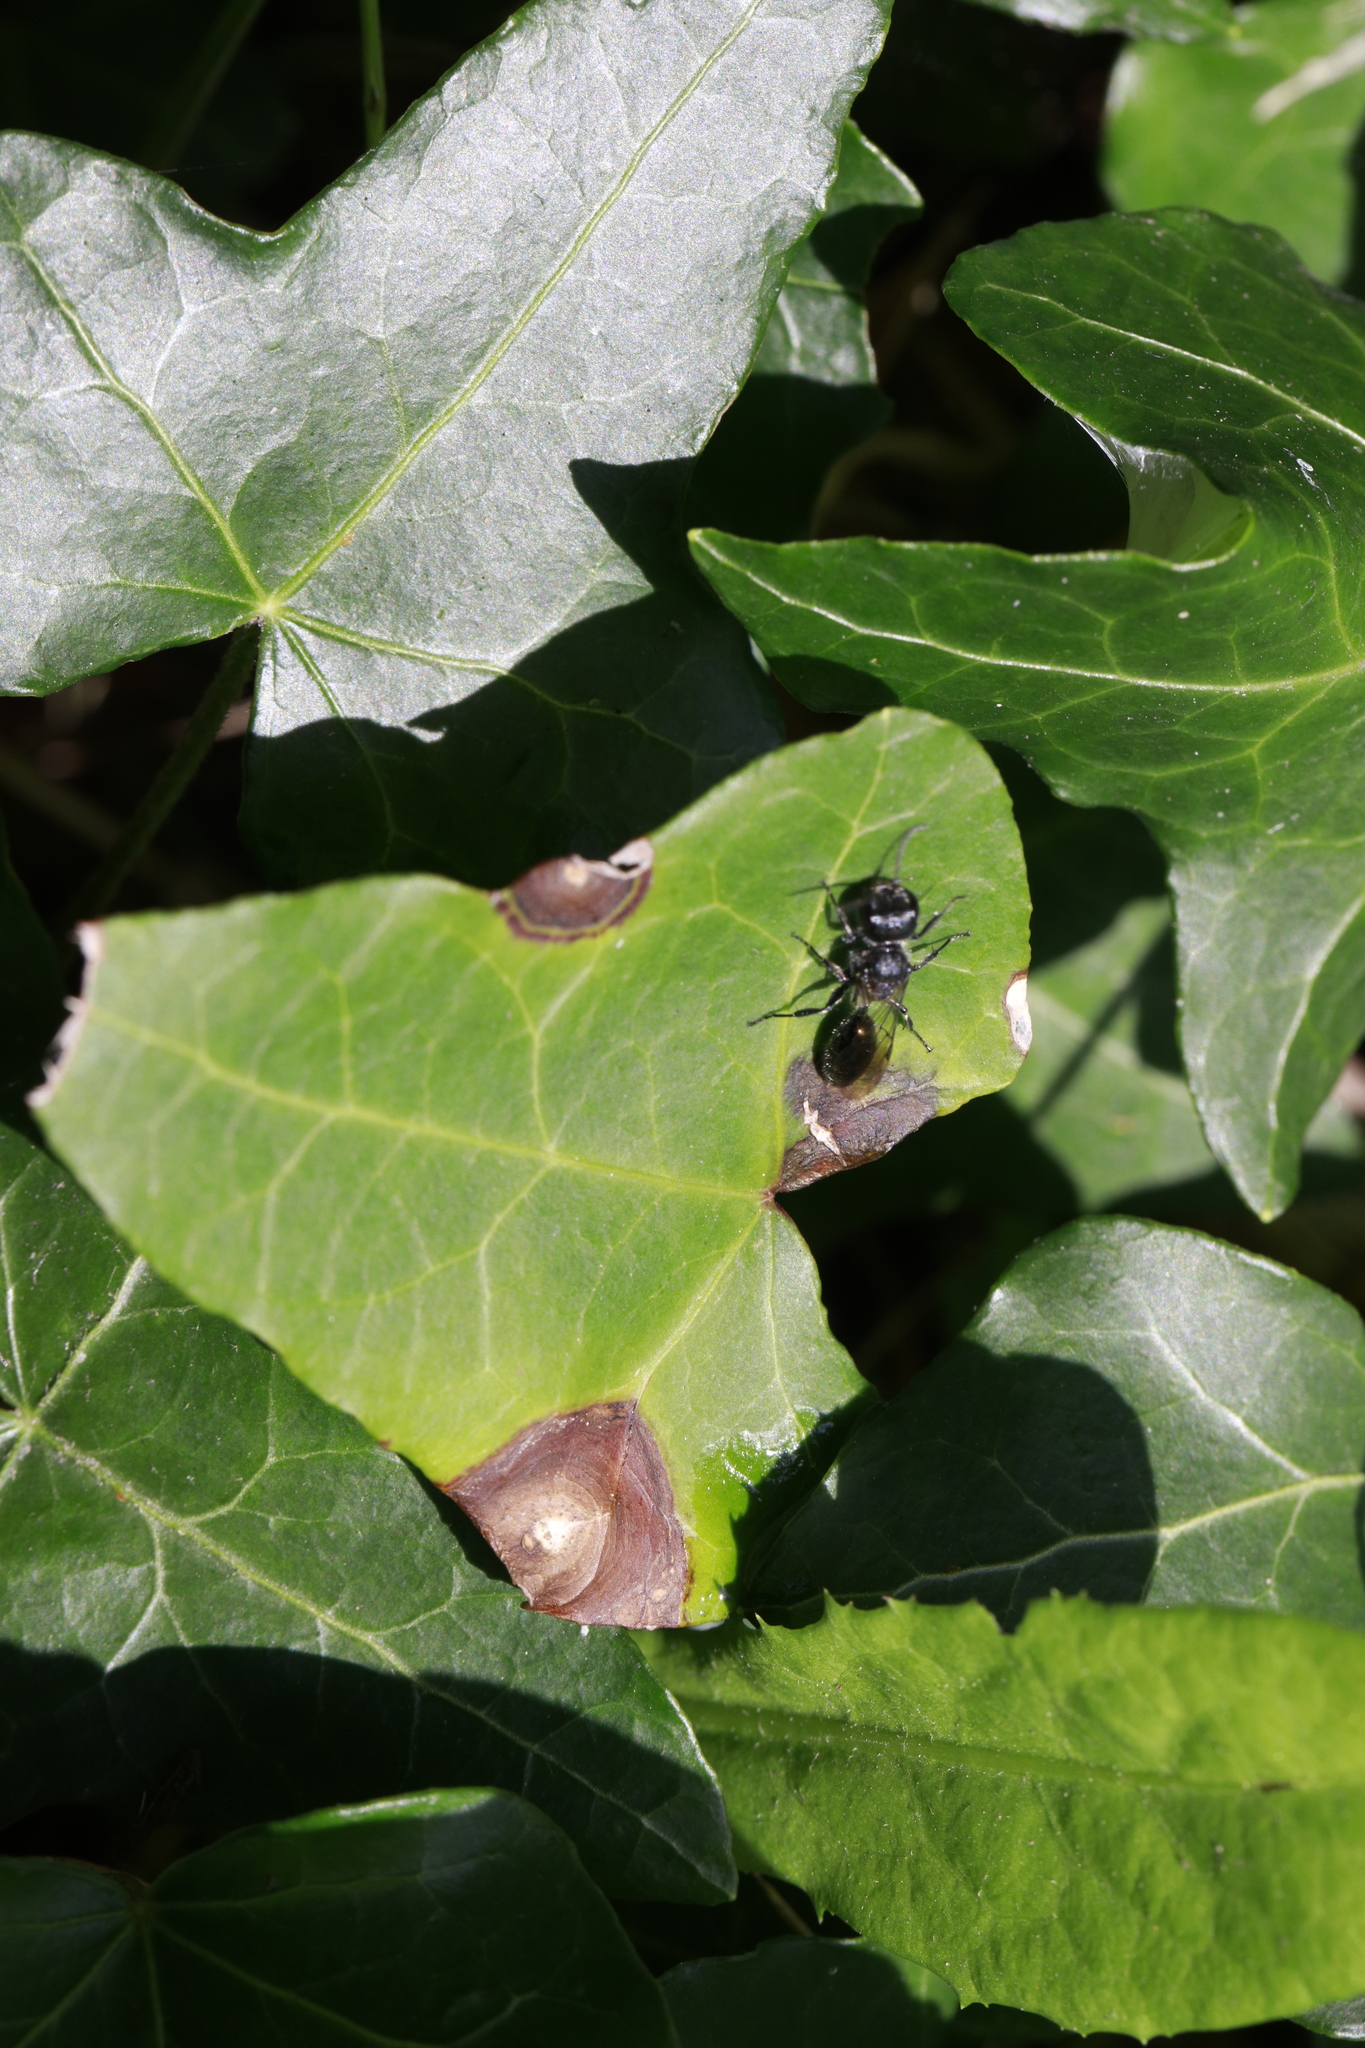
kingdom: Fungi
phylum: Ascomycota
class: Dothideomycetes
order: Pleosporales
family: Didymellaceae
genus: Boeremia
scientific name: Boeremia hedericola
